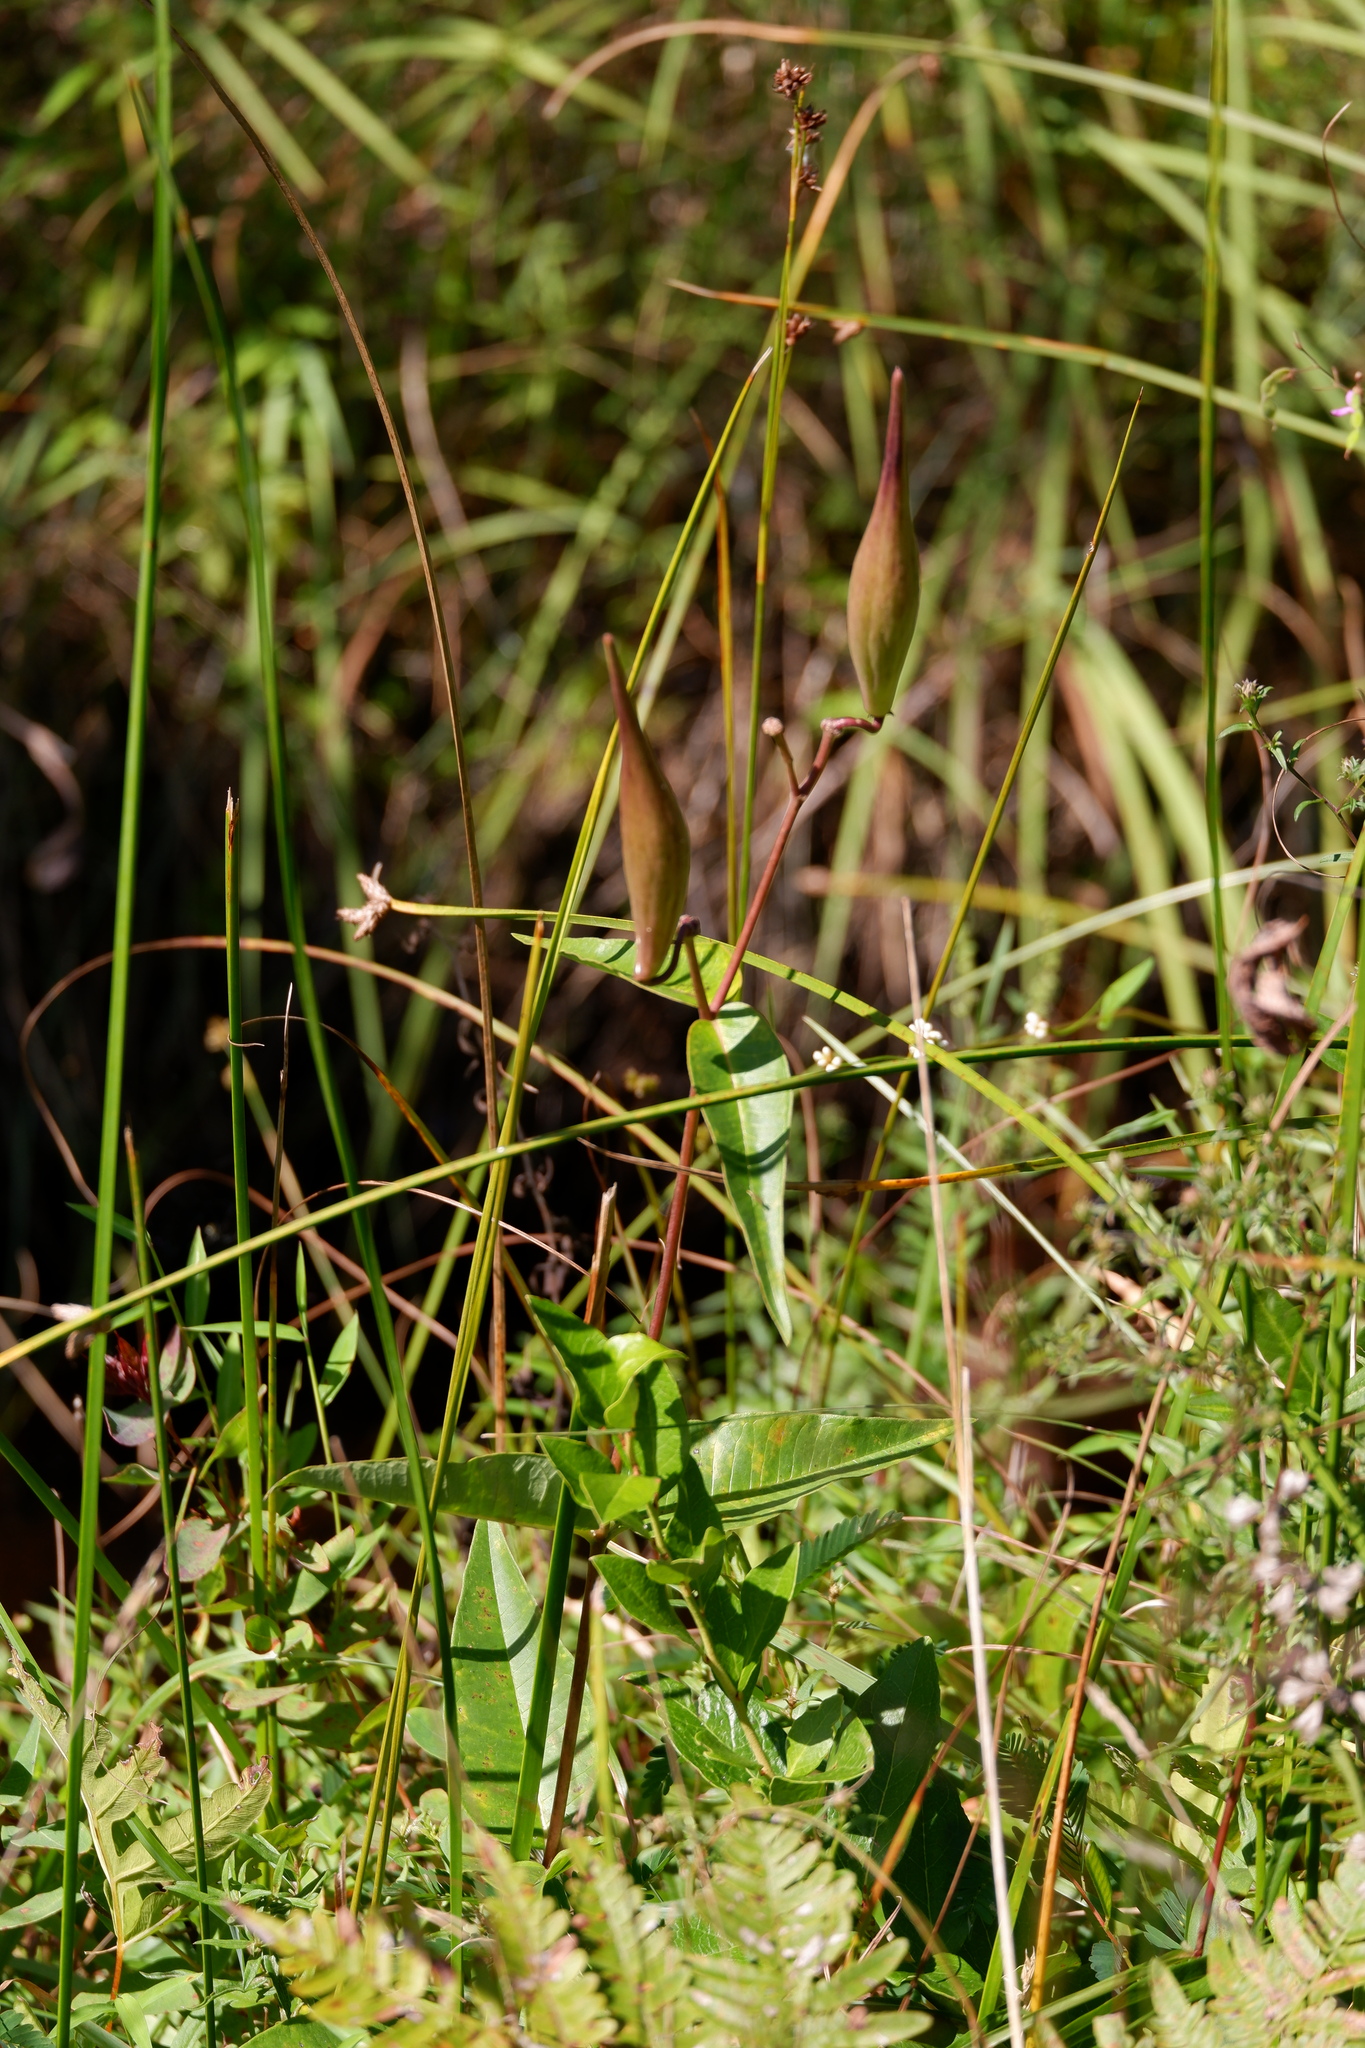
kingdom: Plantae
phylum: Tracheophyta
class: Magnoliopsida
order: Asterales
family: Asteraceae
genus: Helianthus
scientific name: Helianthus angustifolius
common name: Swamp sunflower
